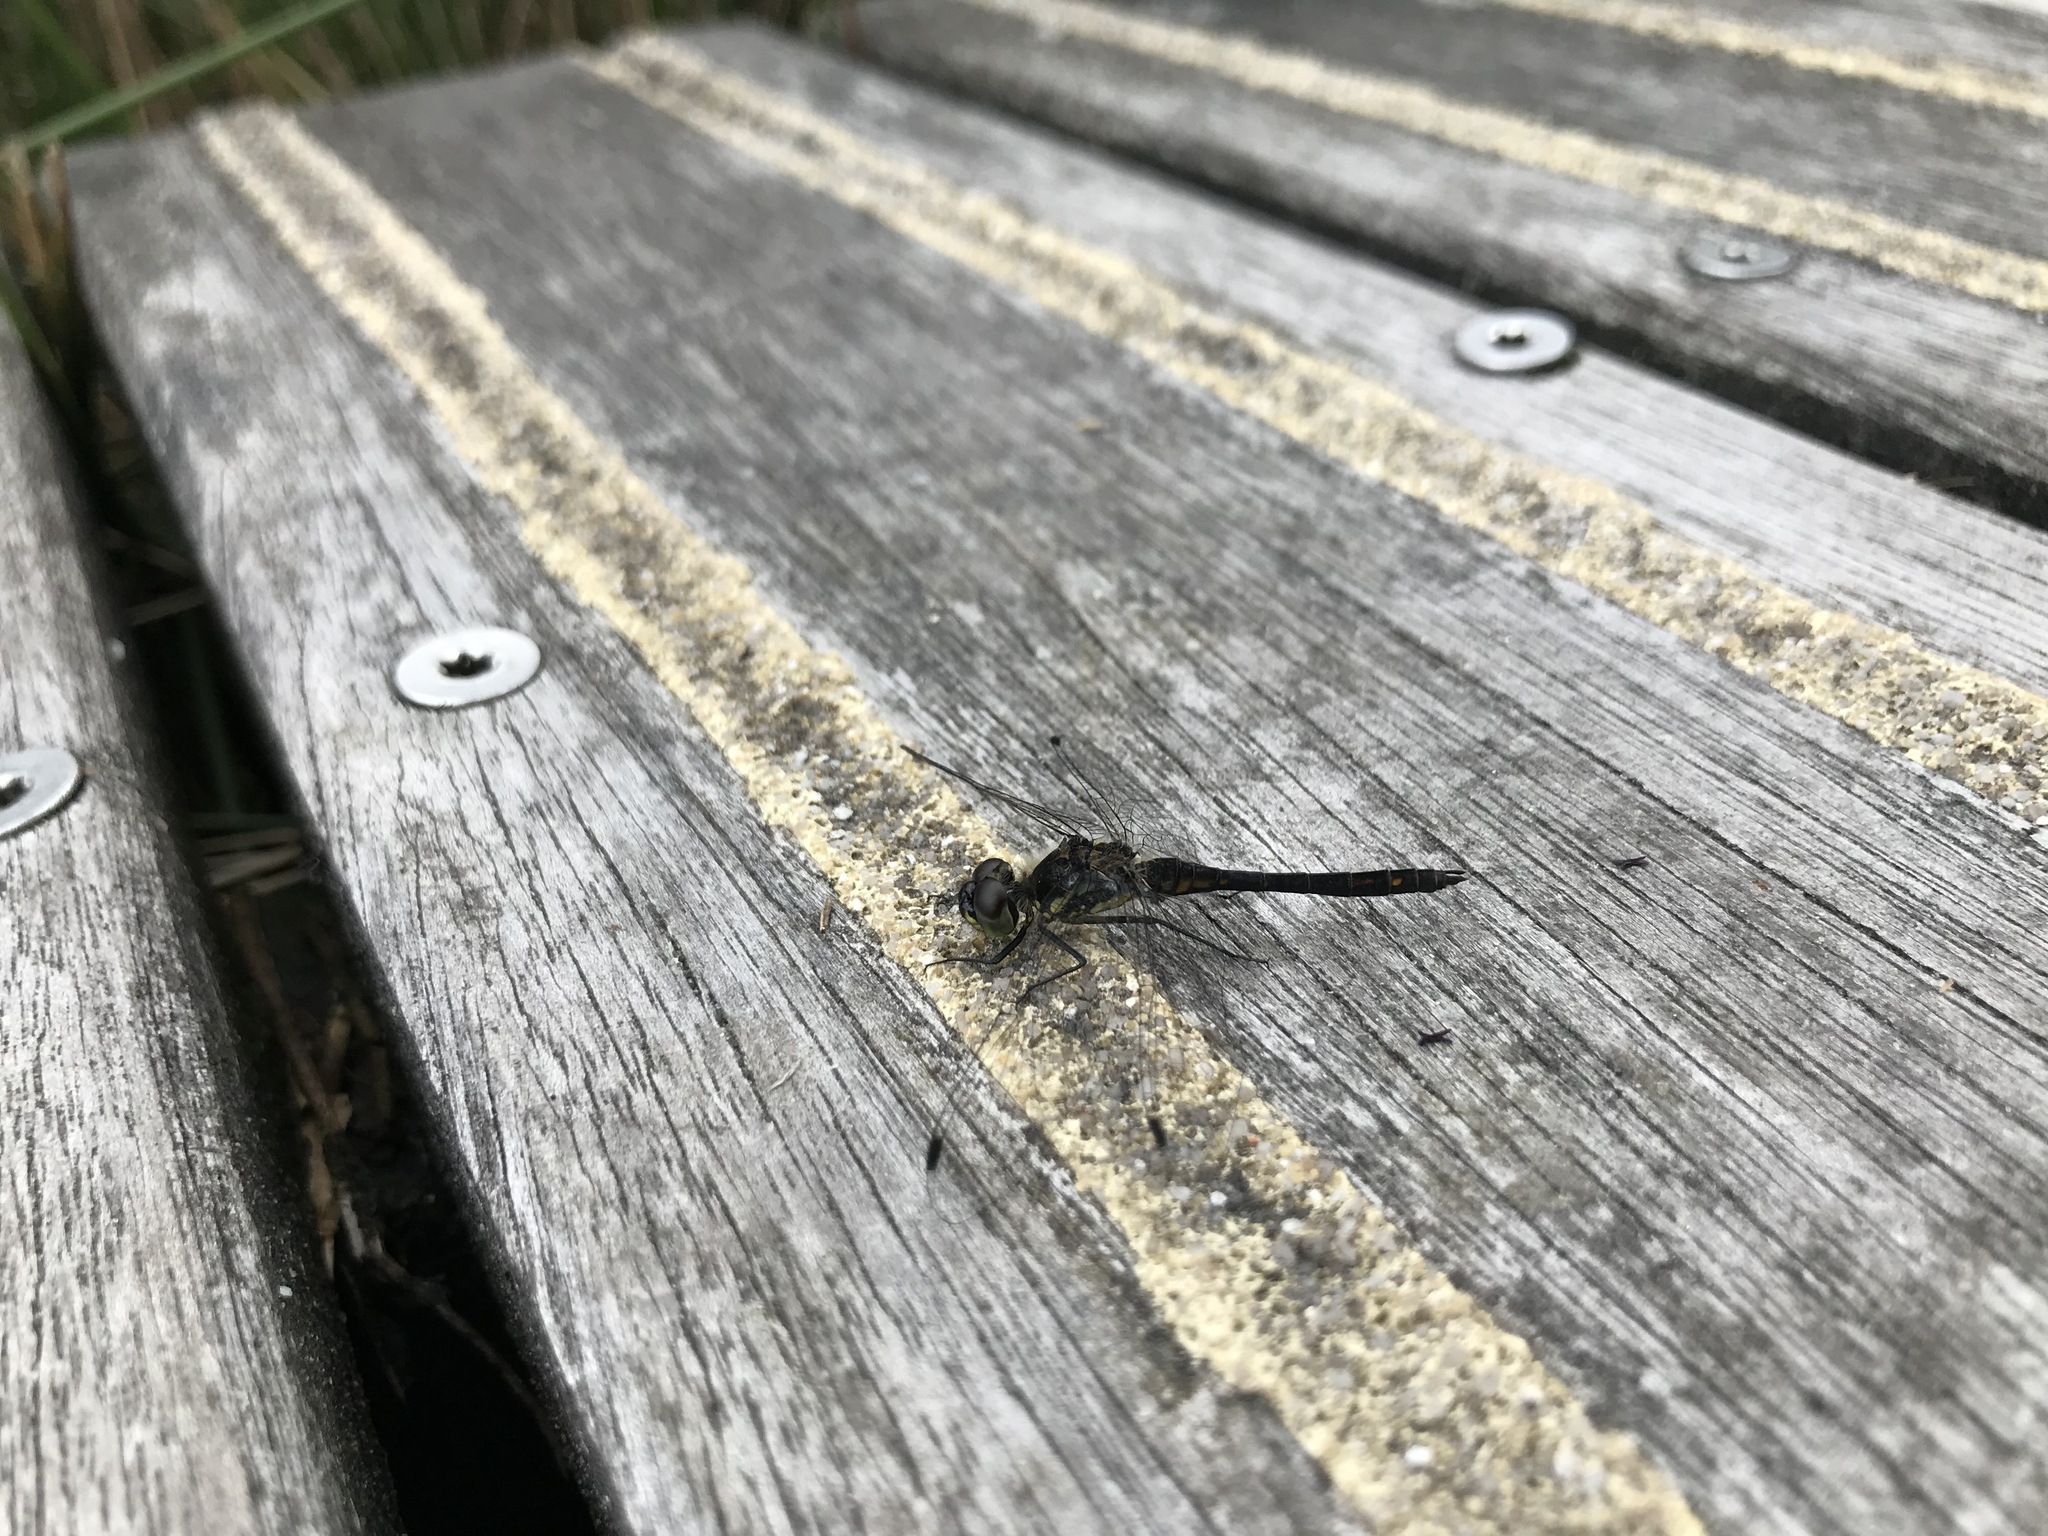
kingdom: Animalia
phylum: Arthropoda
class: Insecta
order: Odonata
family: Libellulidae
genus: Sympetrum
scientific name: Sympetrum danae
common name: Black darter
